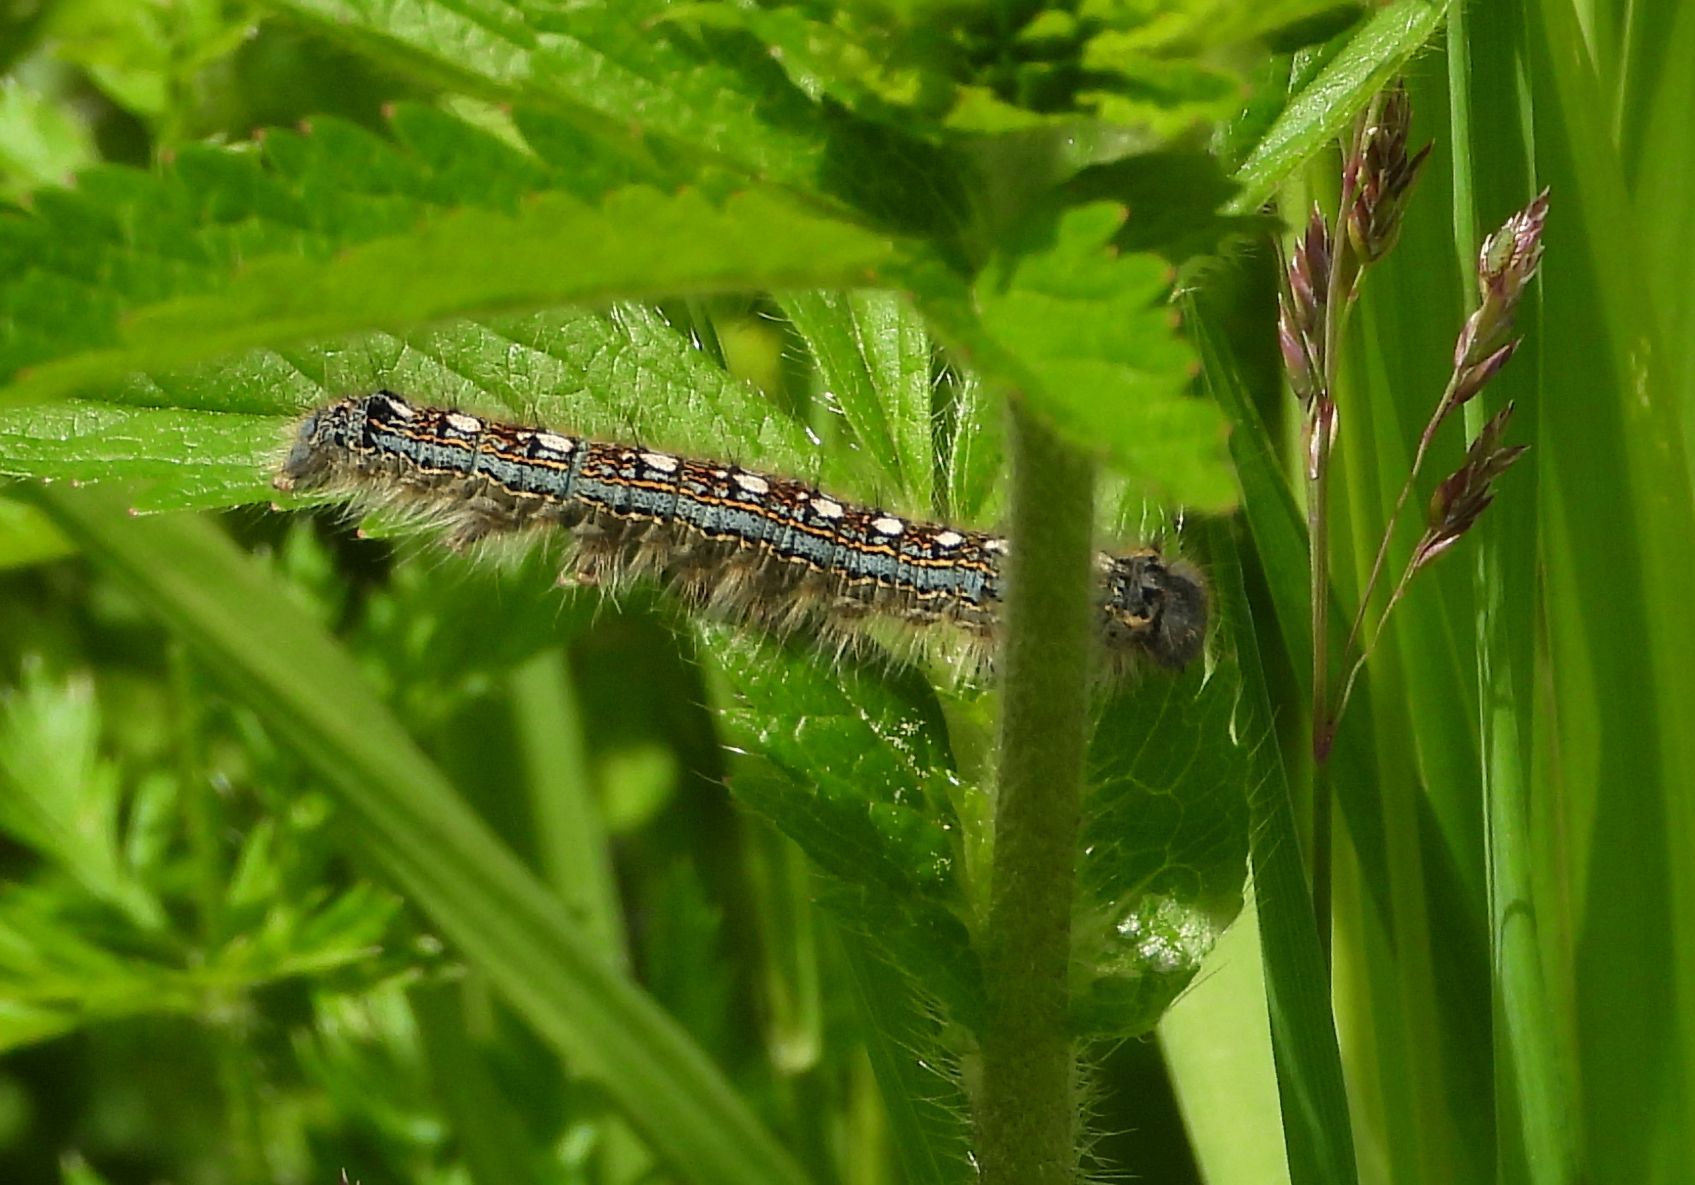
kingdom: Animalia
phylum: Arthropoda
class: Insecta
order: Lepidoptera
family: Lasiocampidae
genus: Malacosoma
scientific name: Malacosoma disstria
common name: Forest tent caterpillar
